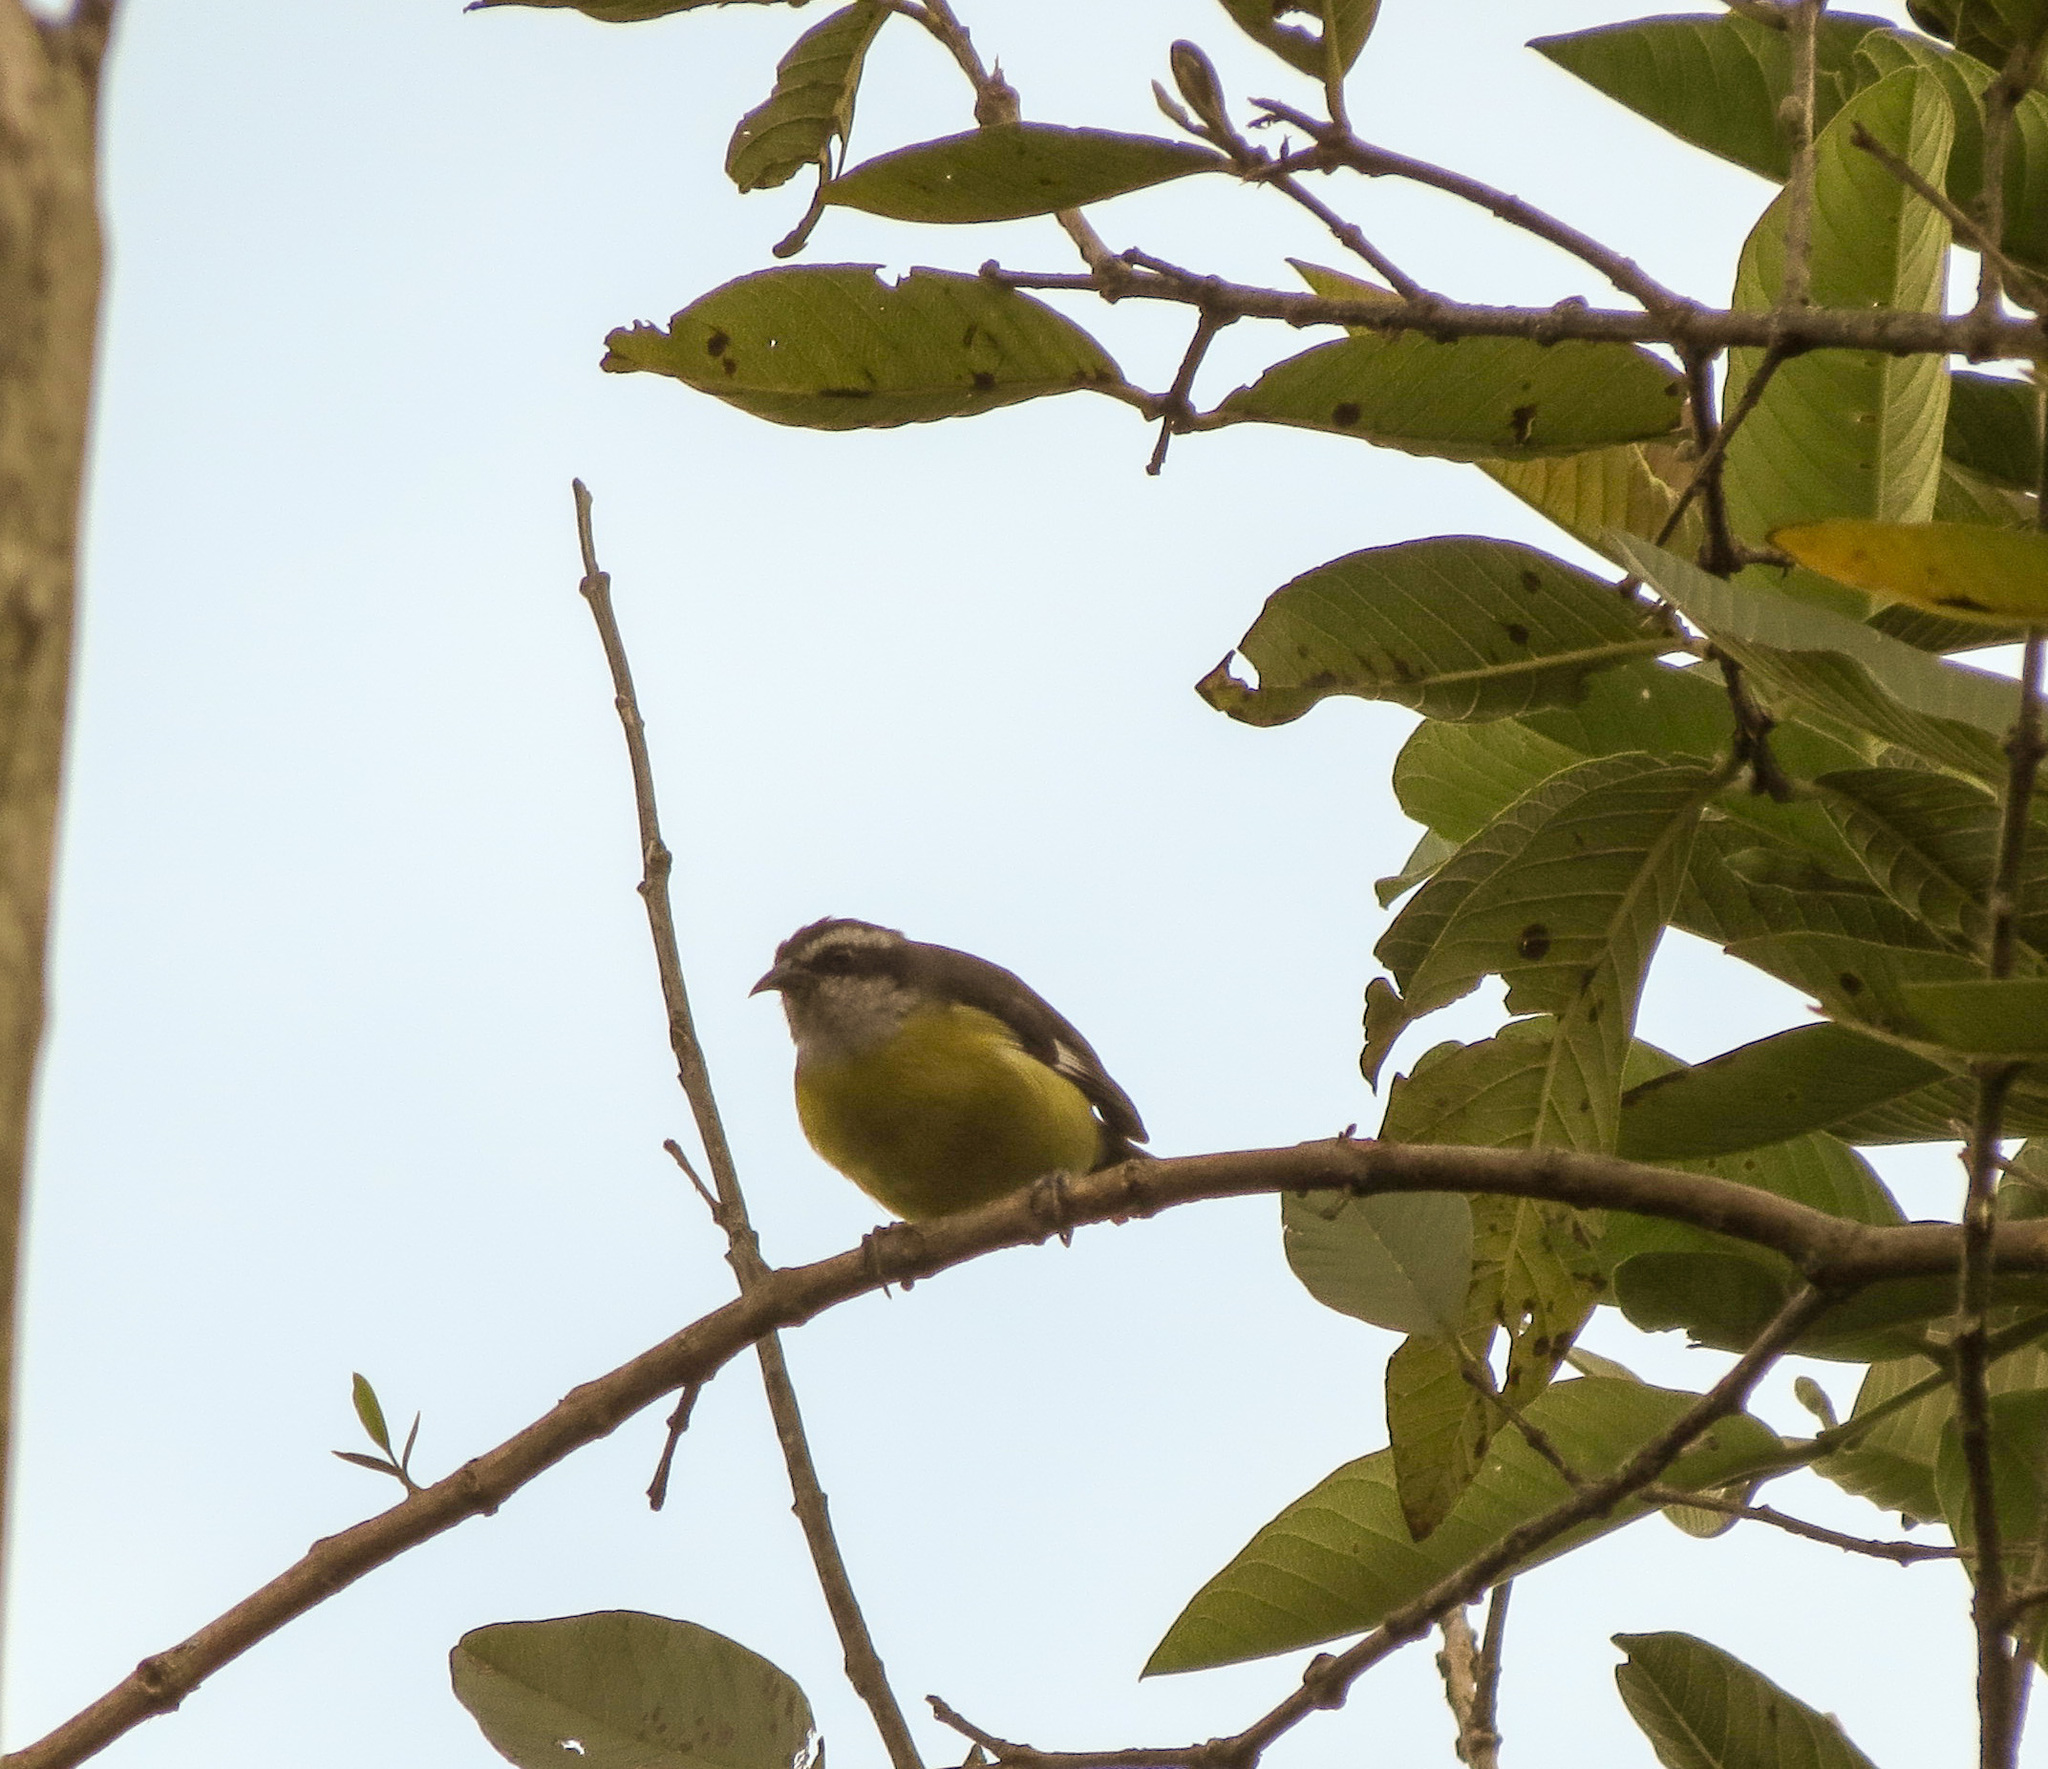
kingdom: Animalia
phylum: Chordata
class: Aves
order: Passeriformes
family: Thraupidae
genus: Coereba
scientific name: Coereba flaveola
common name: Bananaquit
